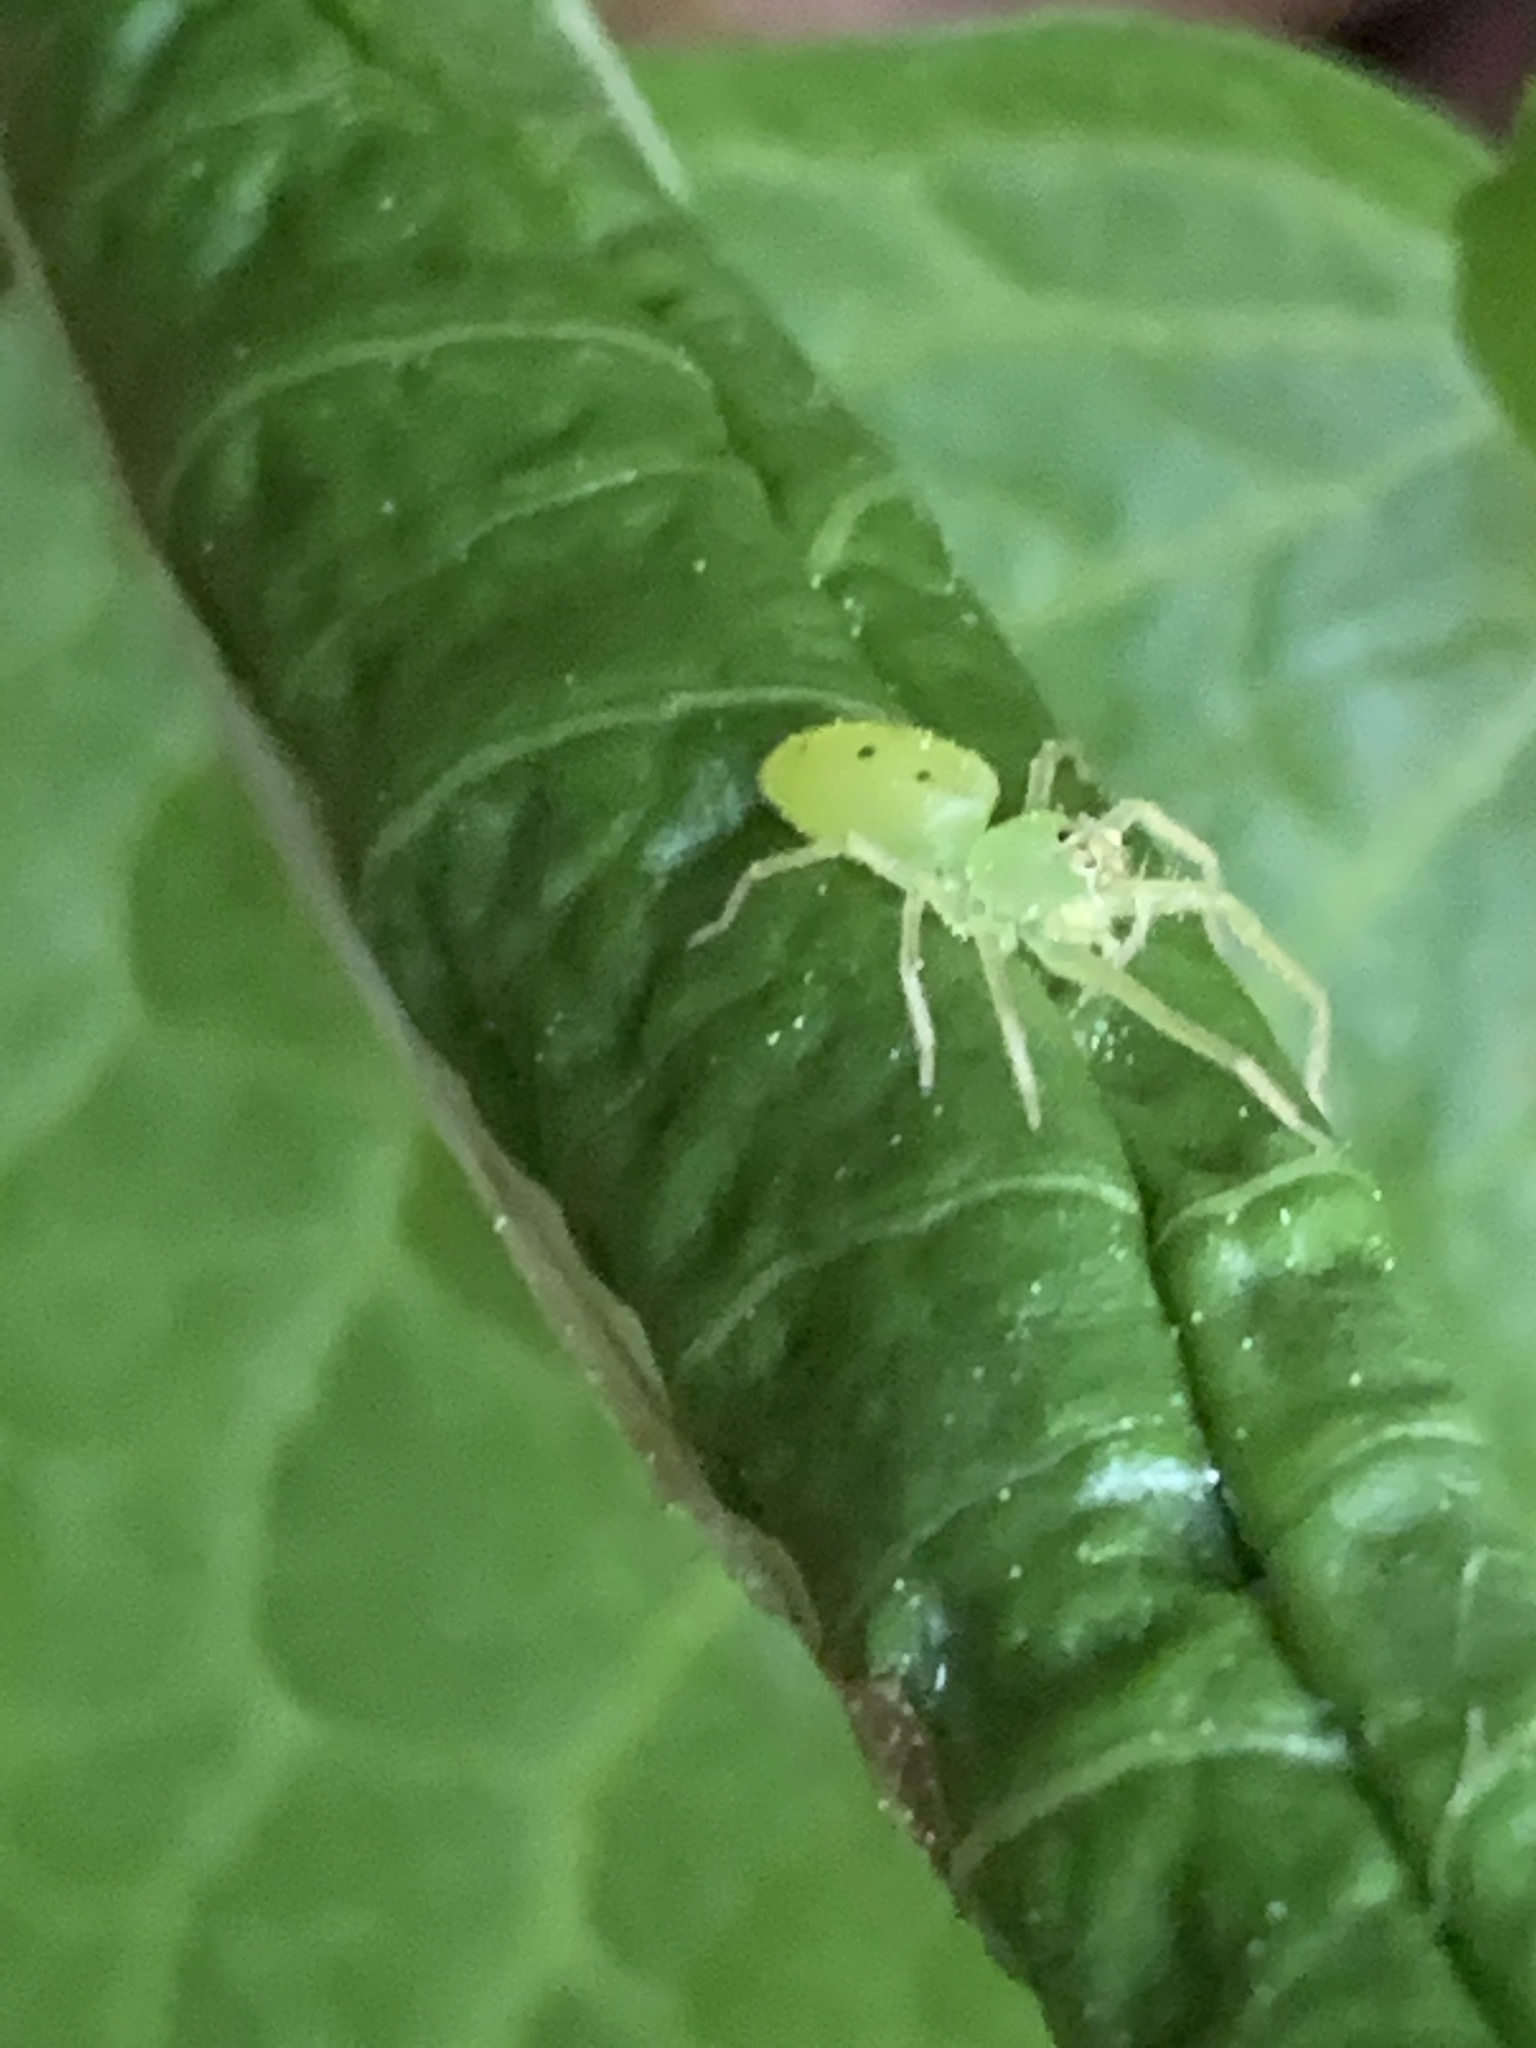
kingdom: Animalia
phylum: Arthropoda
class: Arachnida
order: Araneae
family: Salticidae
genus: Lyssomanes
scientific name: Lyssomanes viridis
